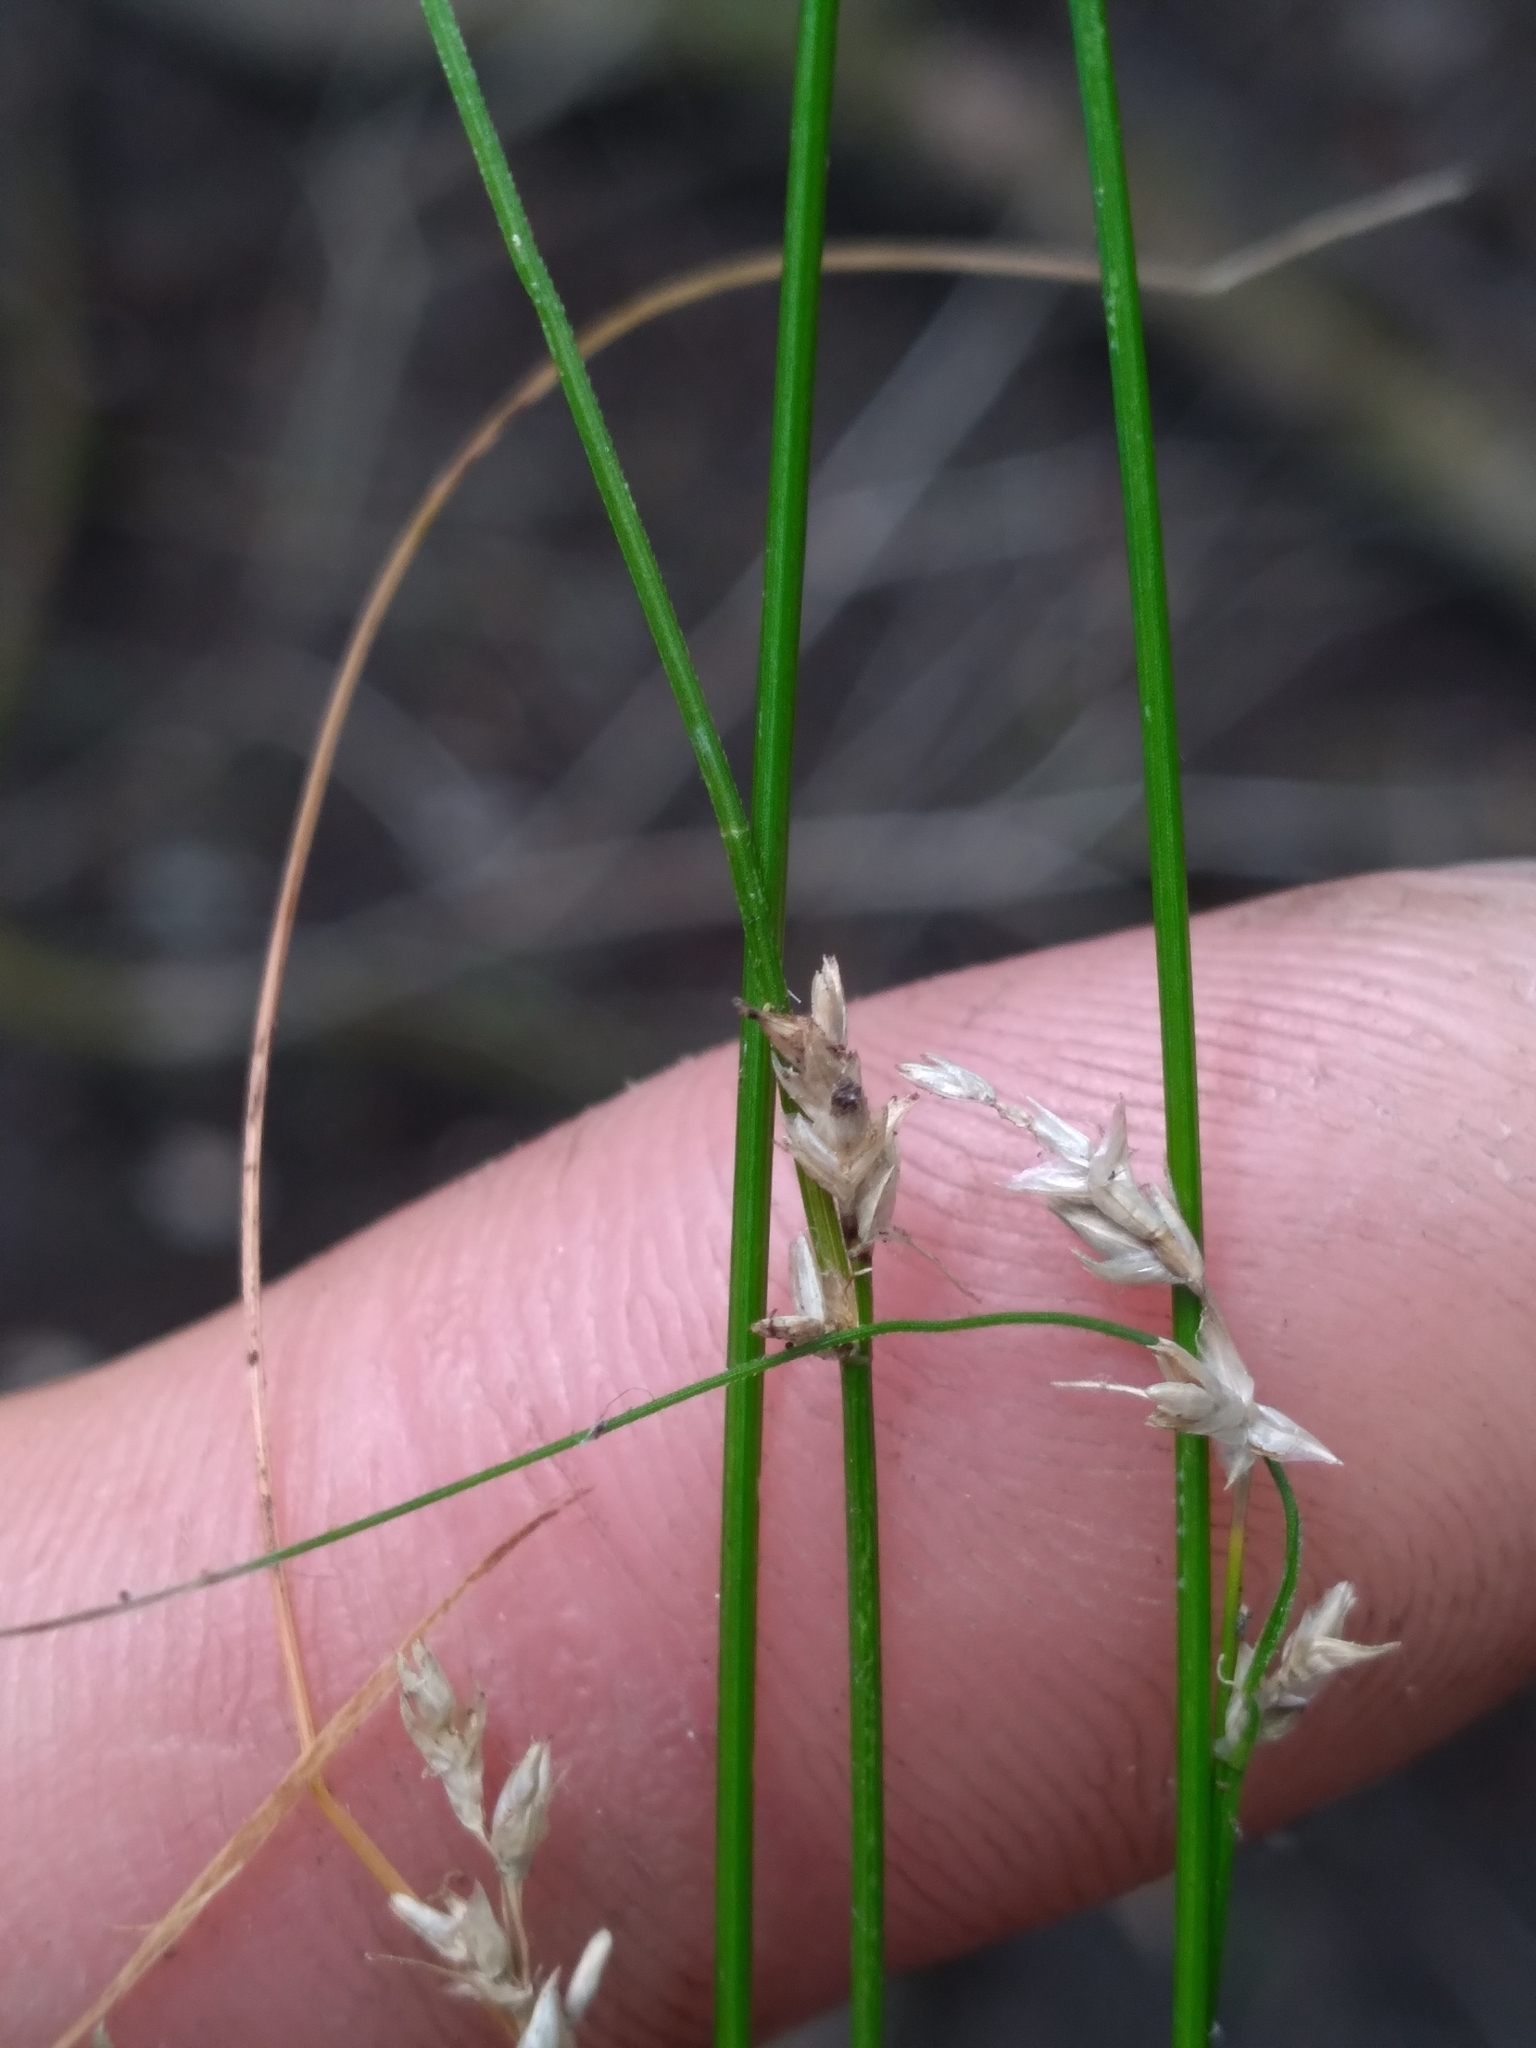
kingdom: Plantae
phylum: Tracheophyta
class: Liliopsida
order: Poales
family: Cyperaceae
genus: Carex
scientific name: Carex atlantica
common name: Atlantic sedge
